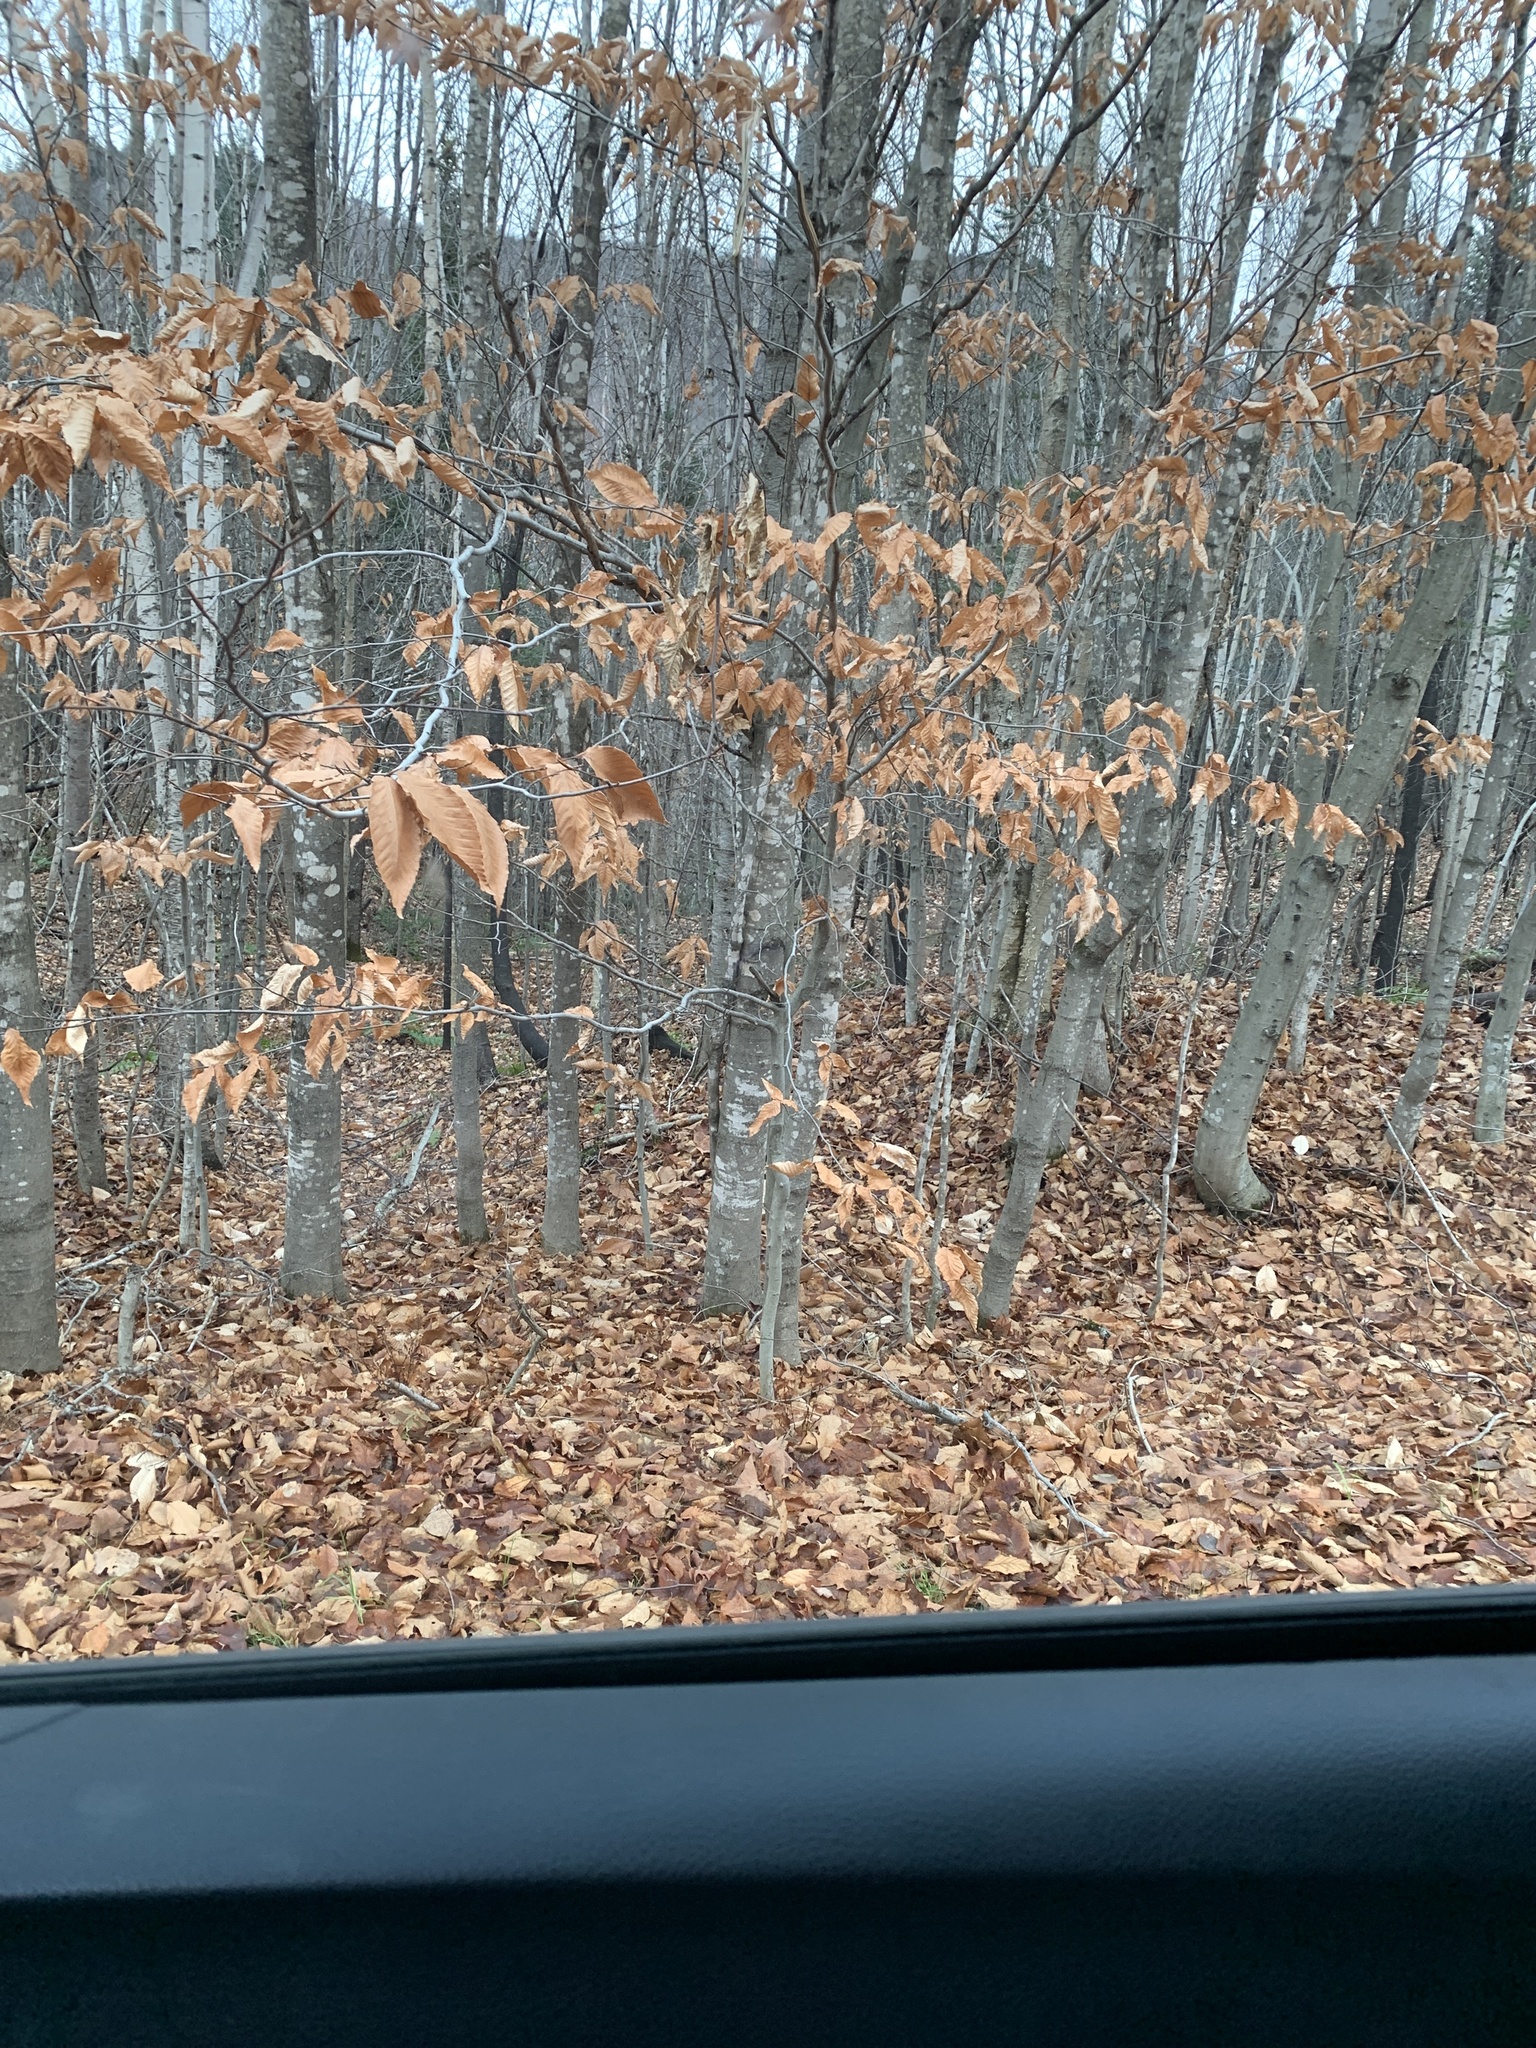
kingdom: Plantae
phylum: Tracheophyta
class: Magnoliopsida
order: Fagales
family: Fagaceae
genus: Fagus
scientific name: Fagus grandifolia
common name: American beech
